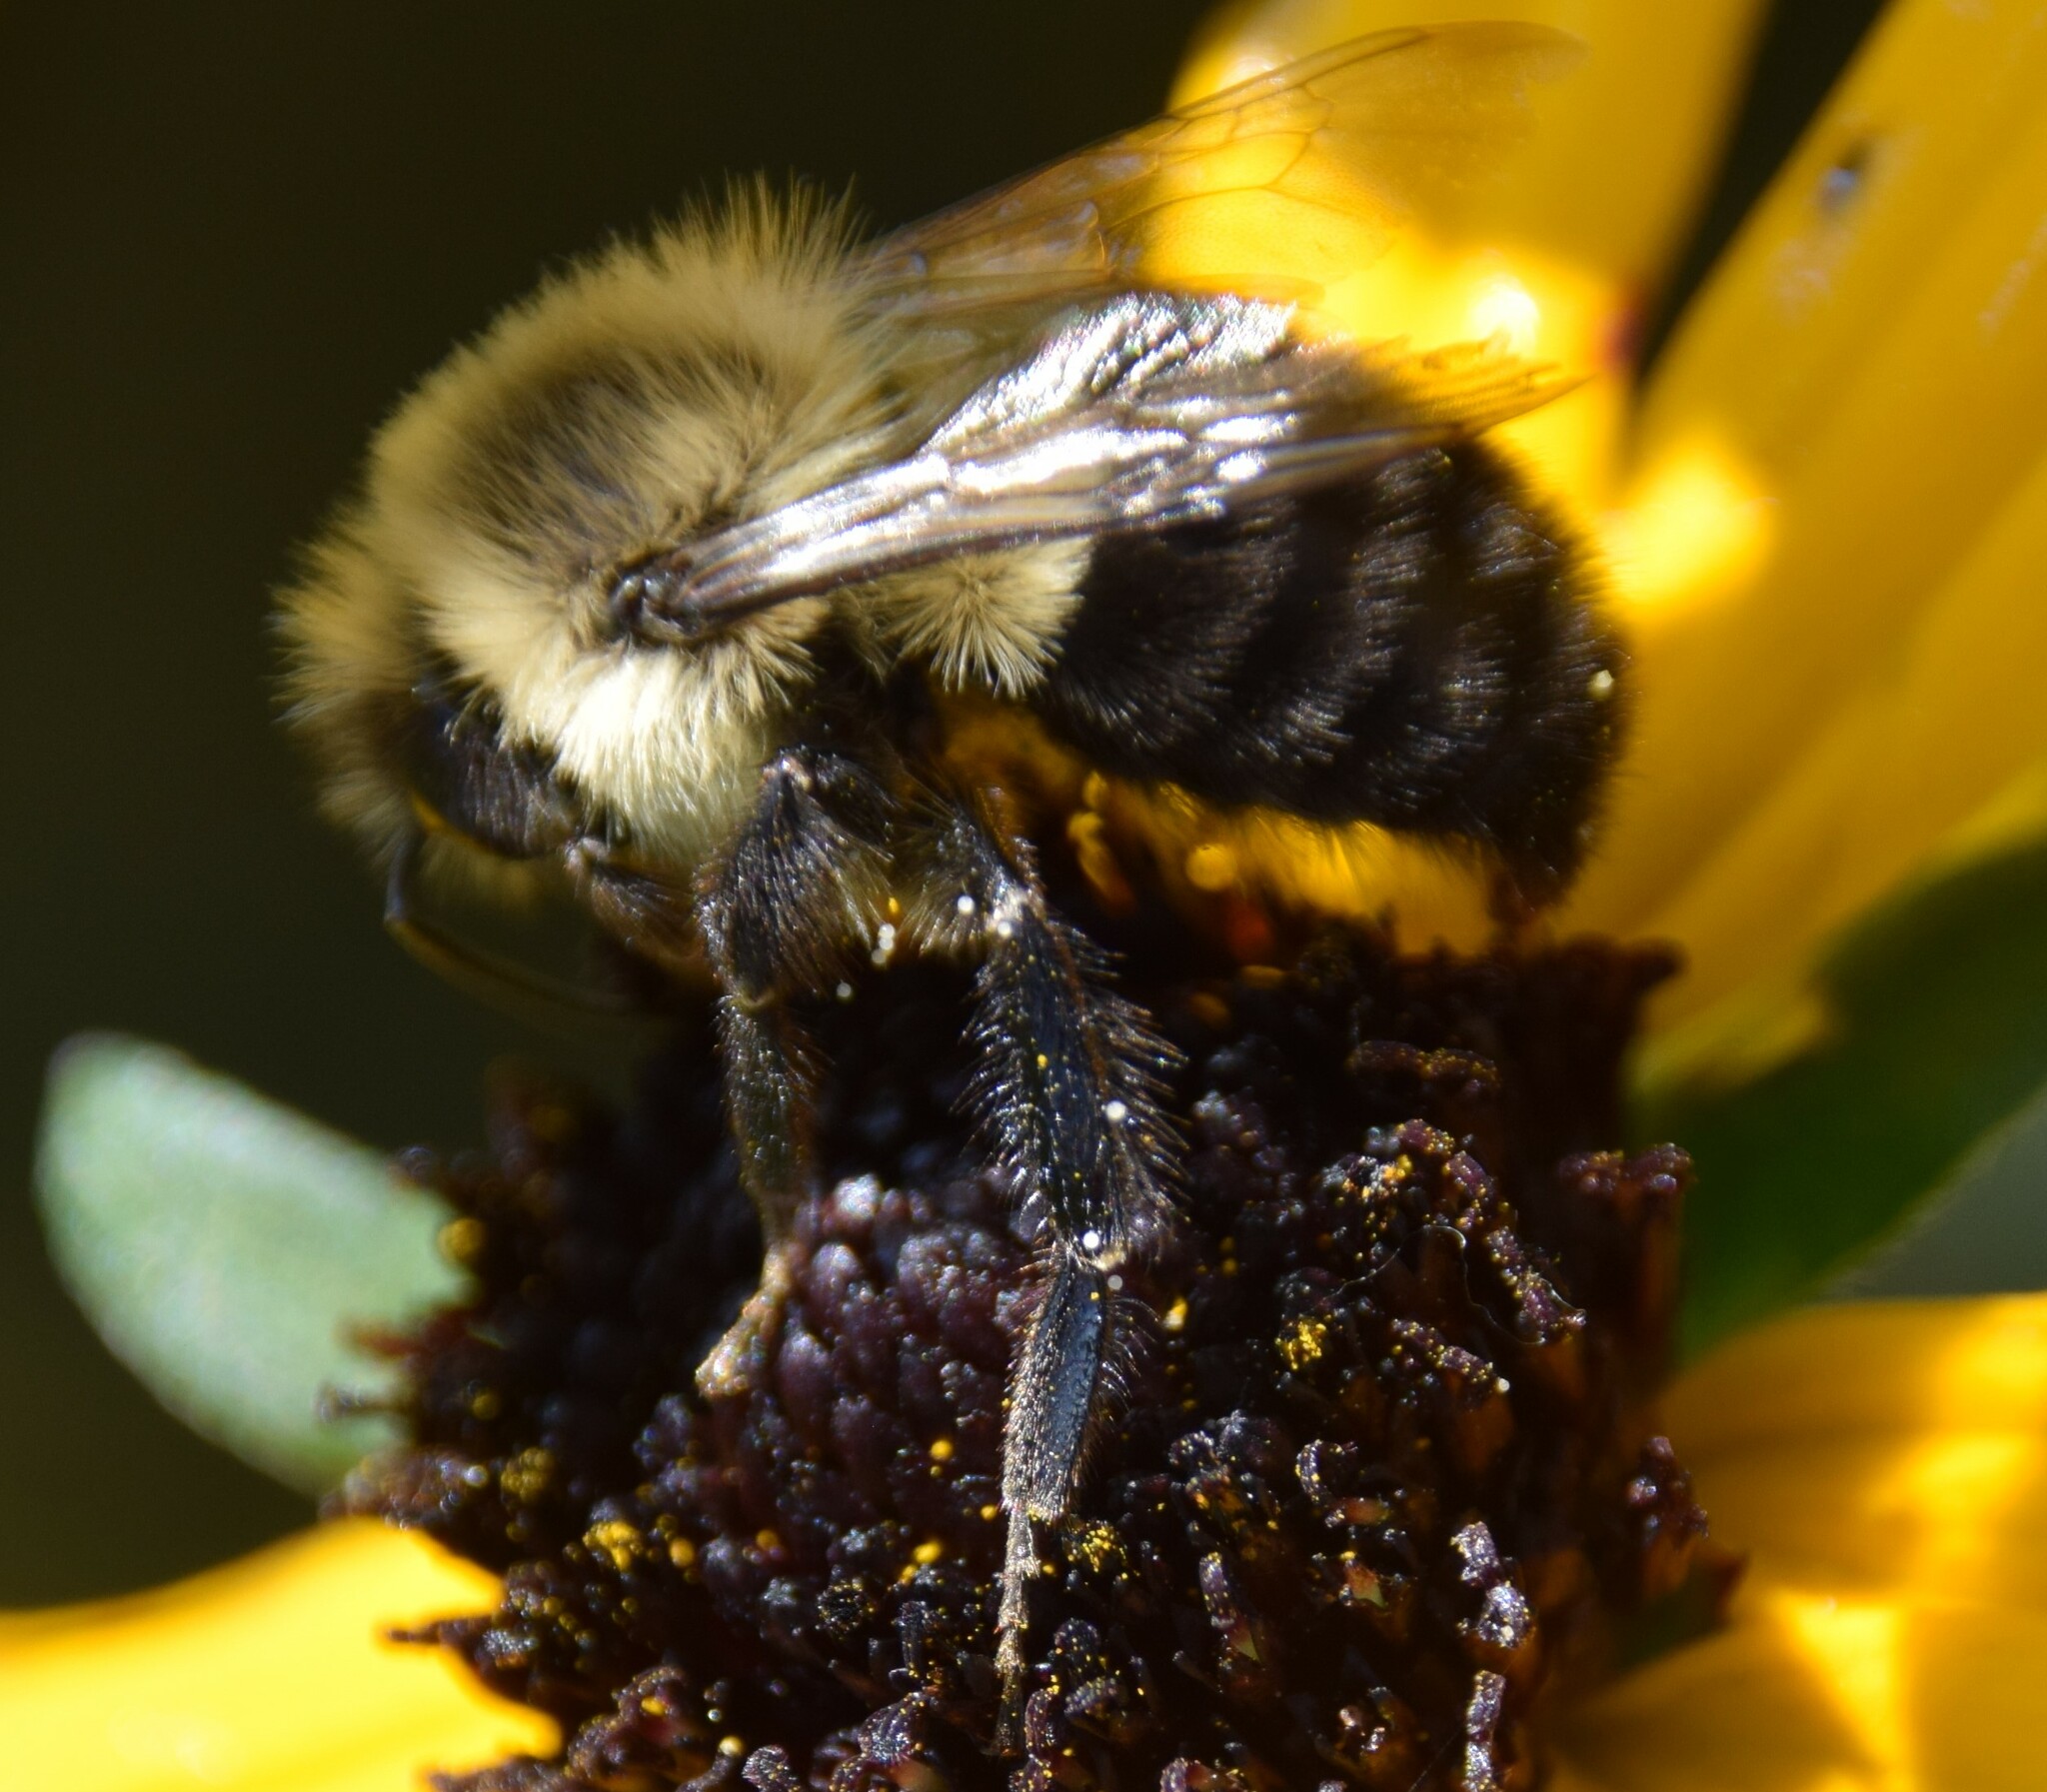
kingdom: Animalia
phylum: Arthropoda
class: Insecta
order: Hymenoptera
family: Apidae
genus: Bombus
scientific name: Bombus impatiens
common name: Common eastern bumble bee
